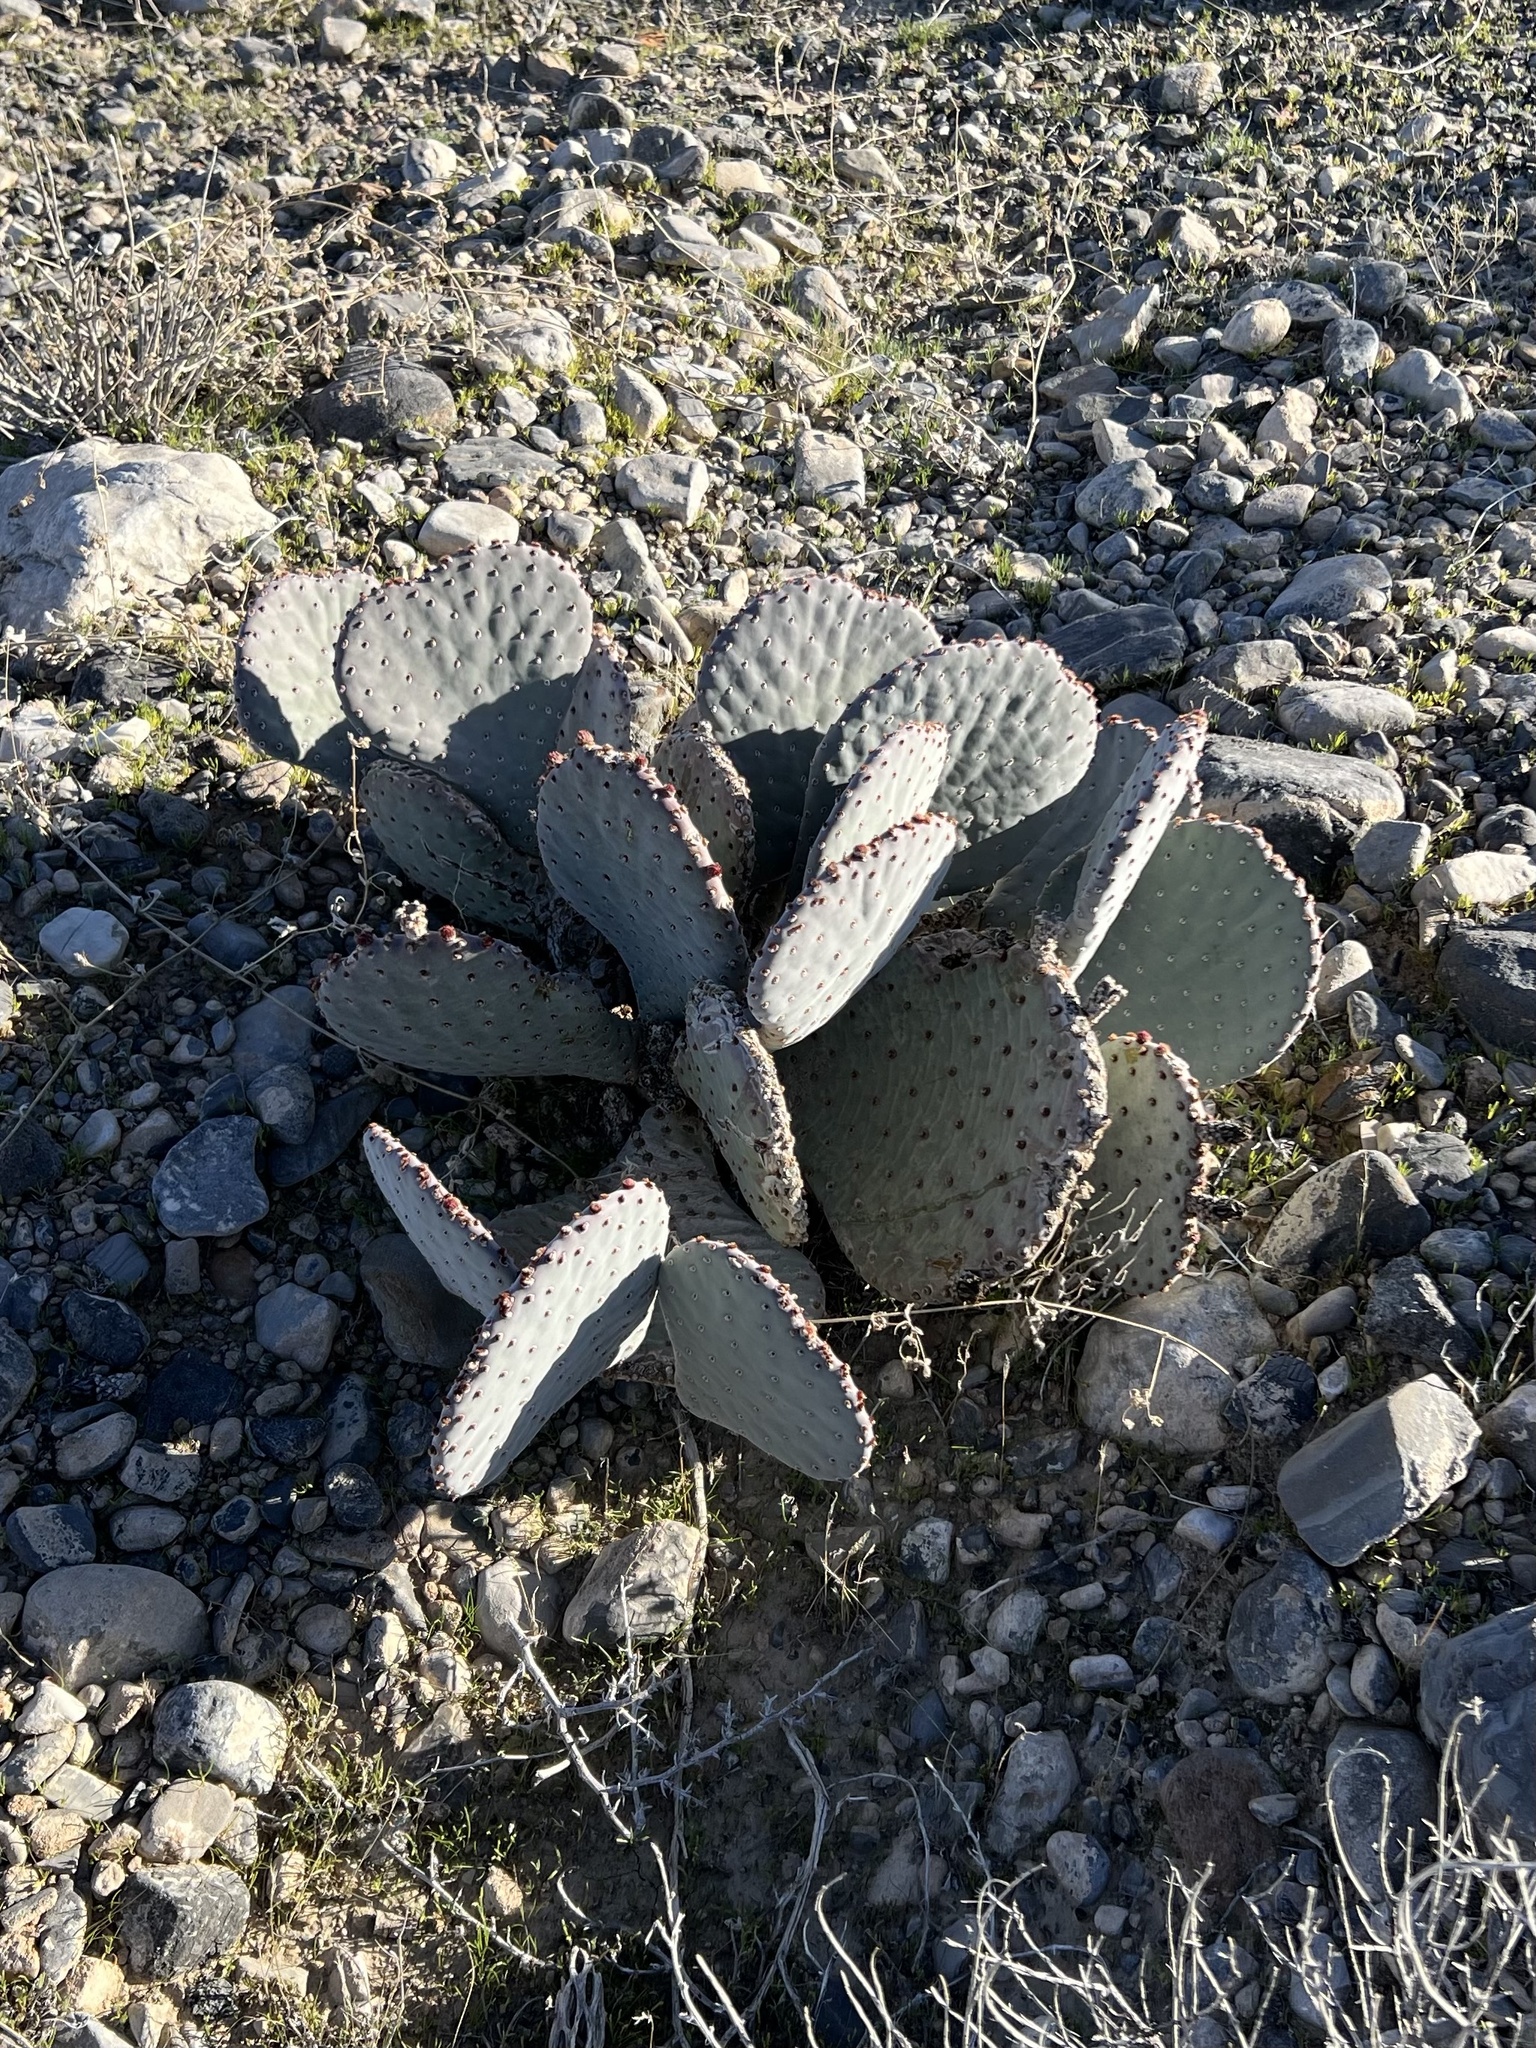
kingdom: Plantae
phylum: Tracheophyta
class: Magnoliopsida
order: Caryophyllales
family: Cactaceae
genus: Opuntia
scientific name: Opuntia basilaris
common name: Beavertail prickly-pear
